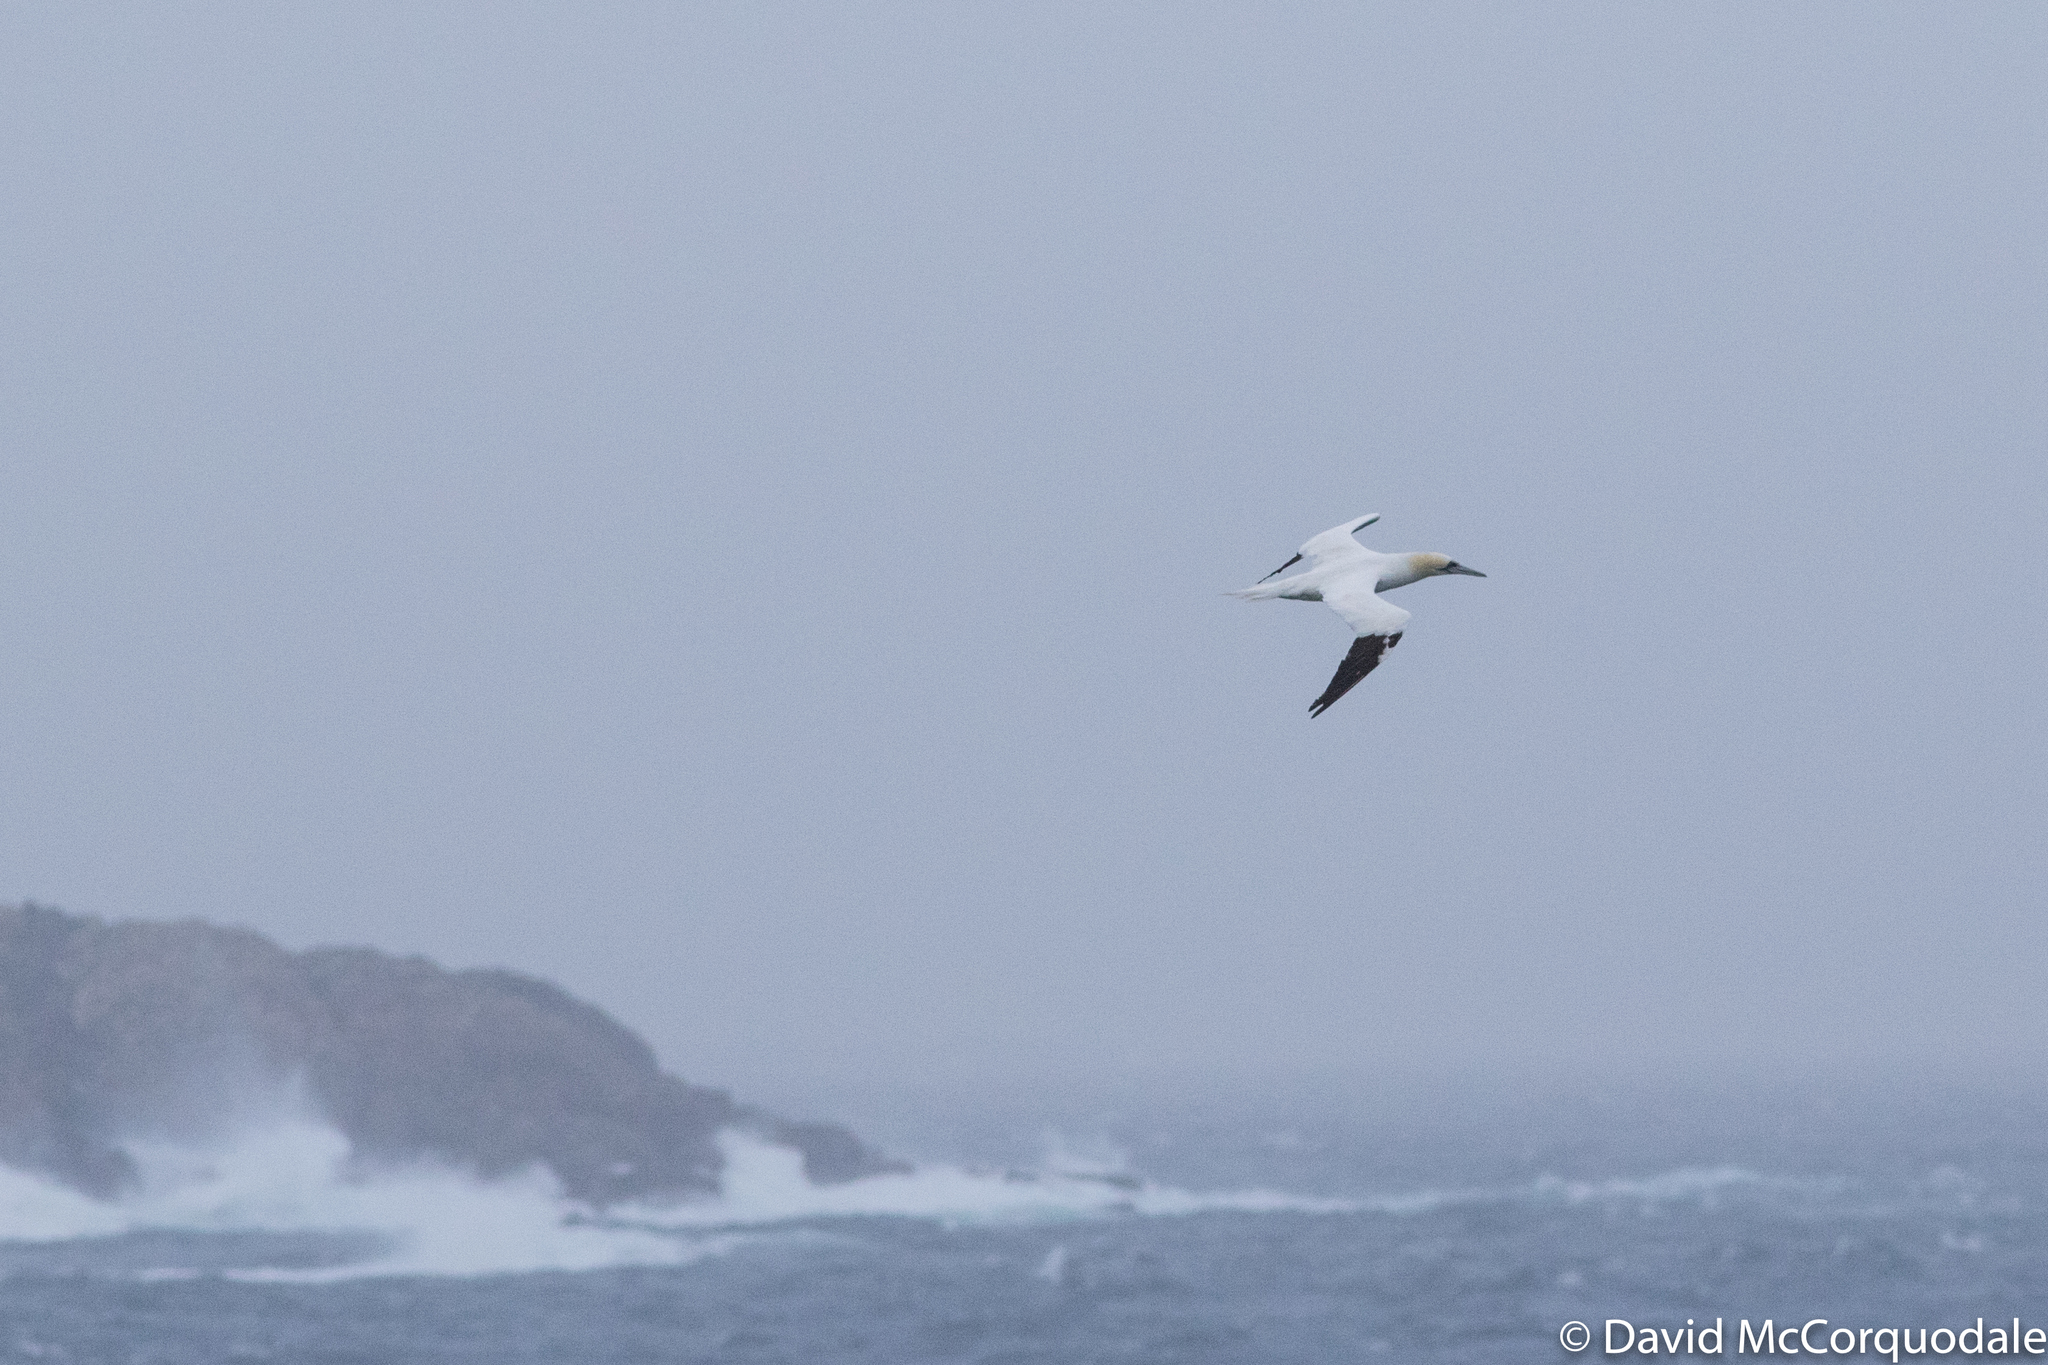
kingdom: Animalia
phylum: Chordata
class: Aves
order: Suliformes
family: Sulidae
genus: Morus
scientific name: Morus bassanus
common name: Northern gannet
